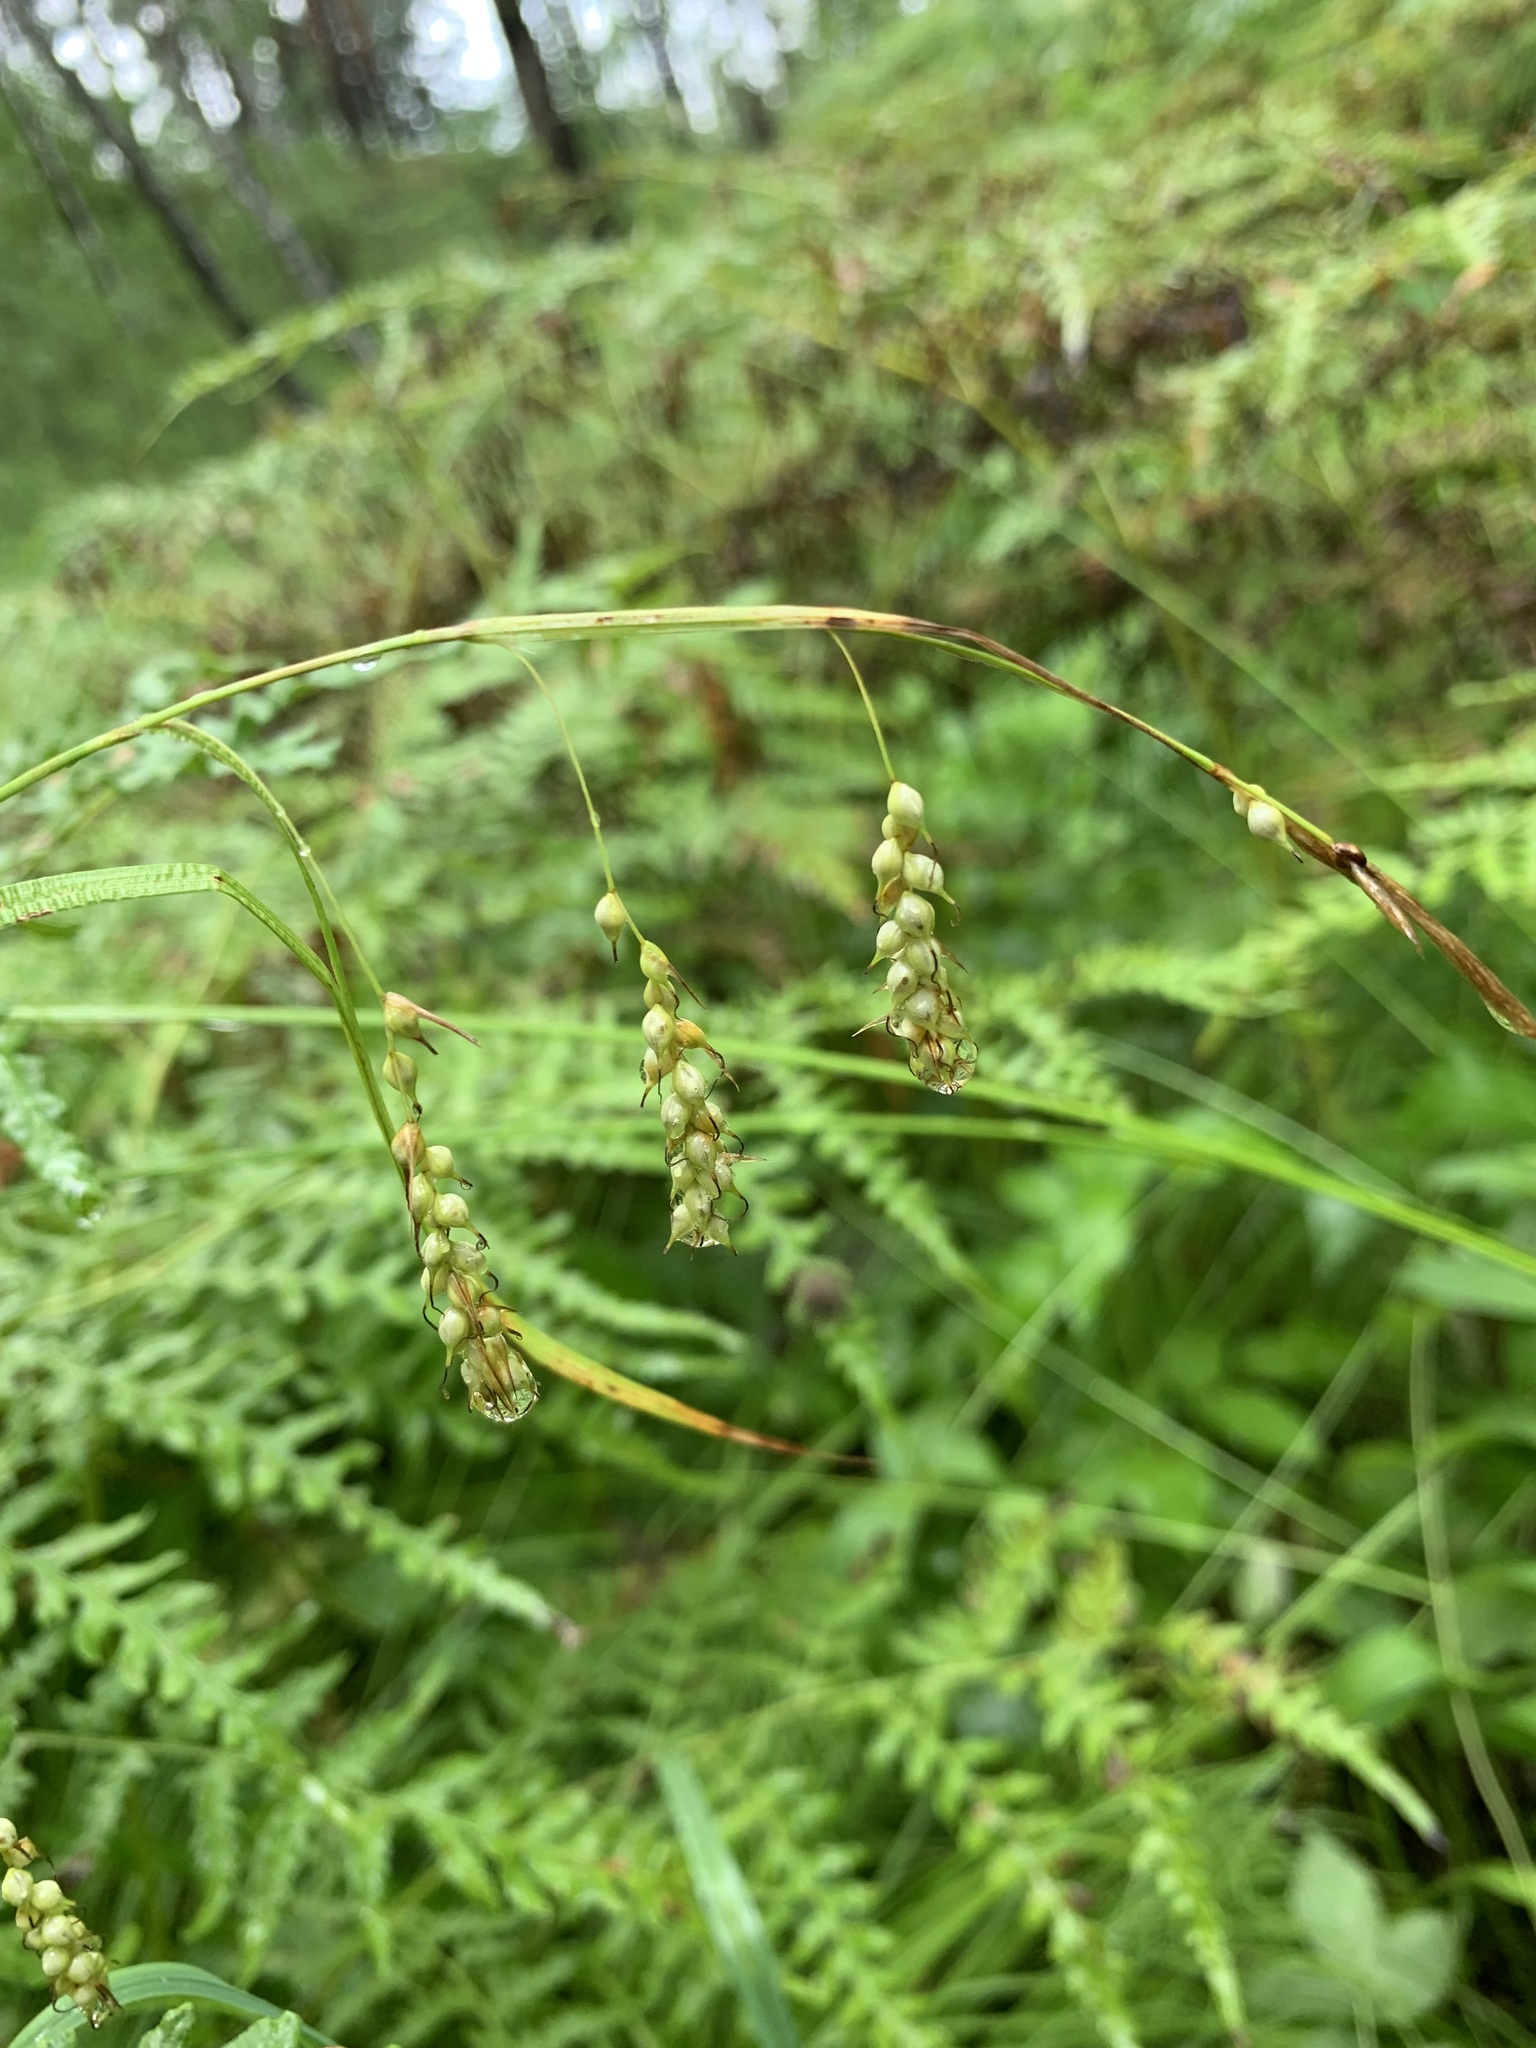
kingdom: Plantae
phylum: Tracheophyta
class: Liliopsida
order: Poales
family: Cyperaceae
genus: Carex
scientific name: Carex arnellii
